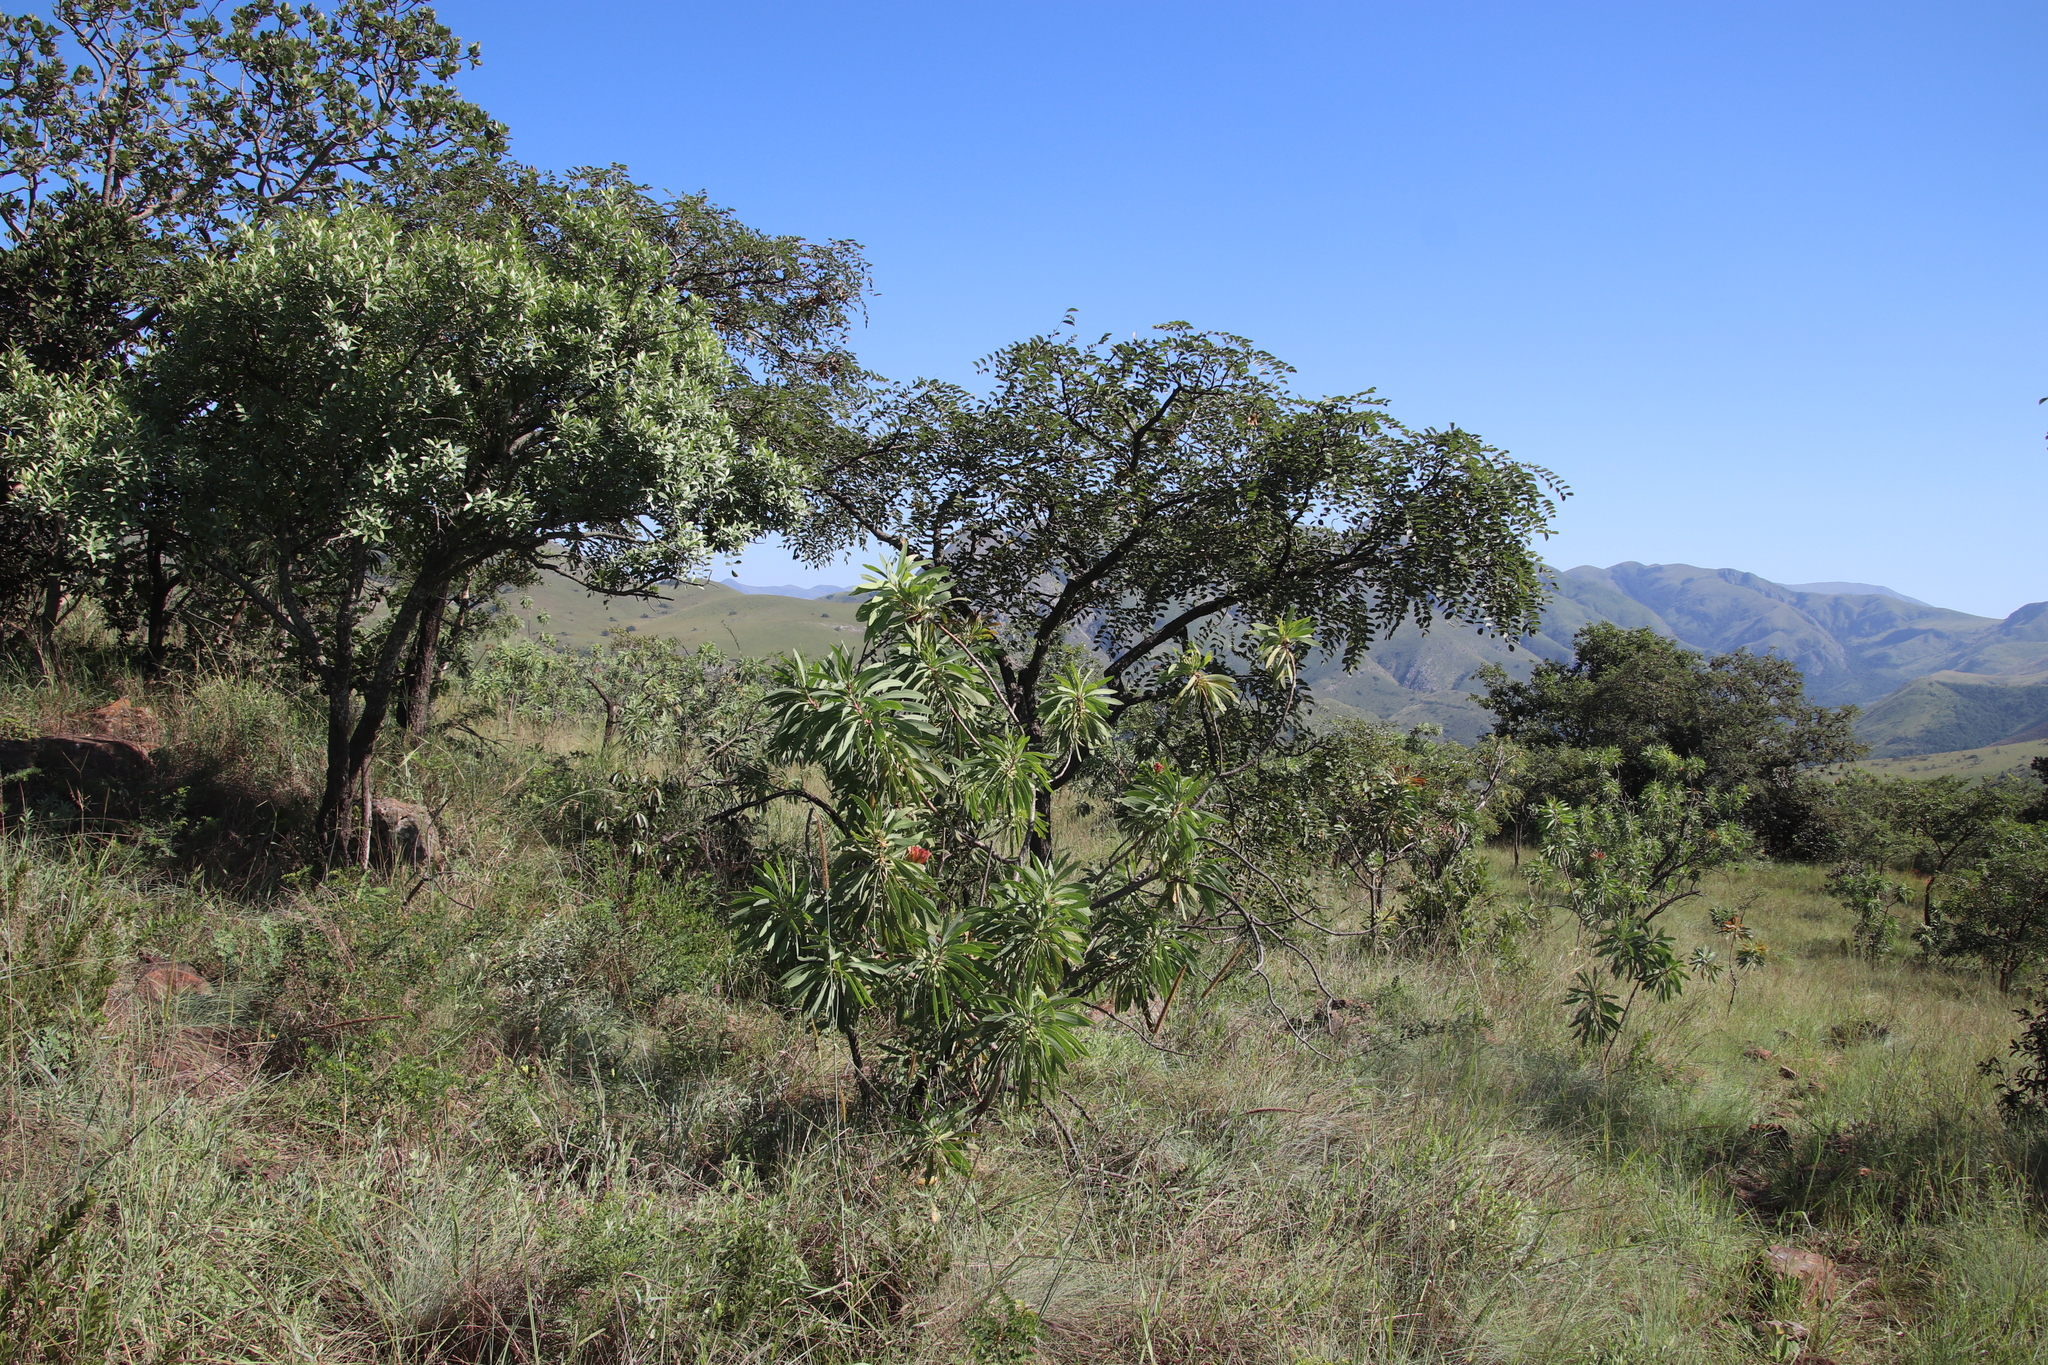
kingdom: Plantae
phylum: Tracheophyta
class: Magnoliopsida
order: Proteales
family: Proteaceae
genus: Protea
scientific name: Protea caffra
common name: Common sugarbush
